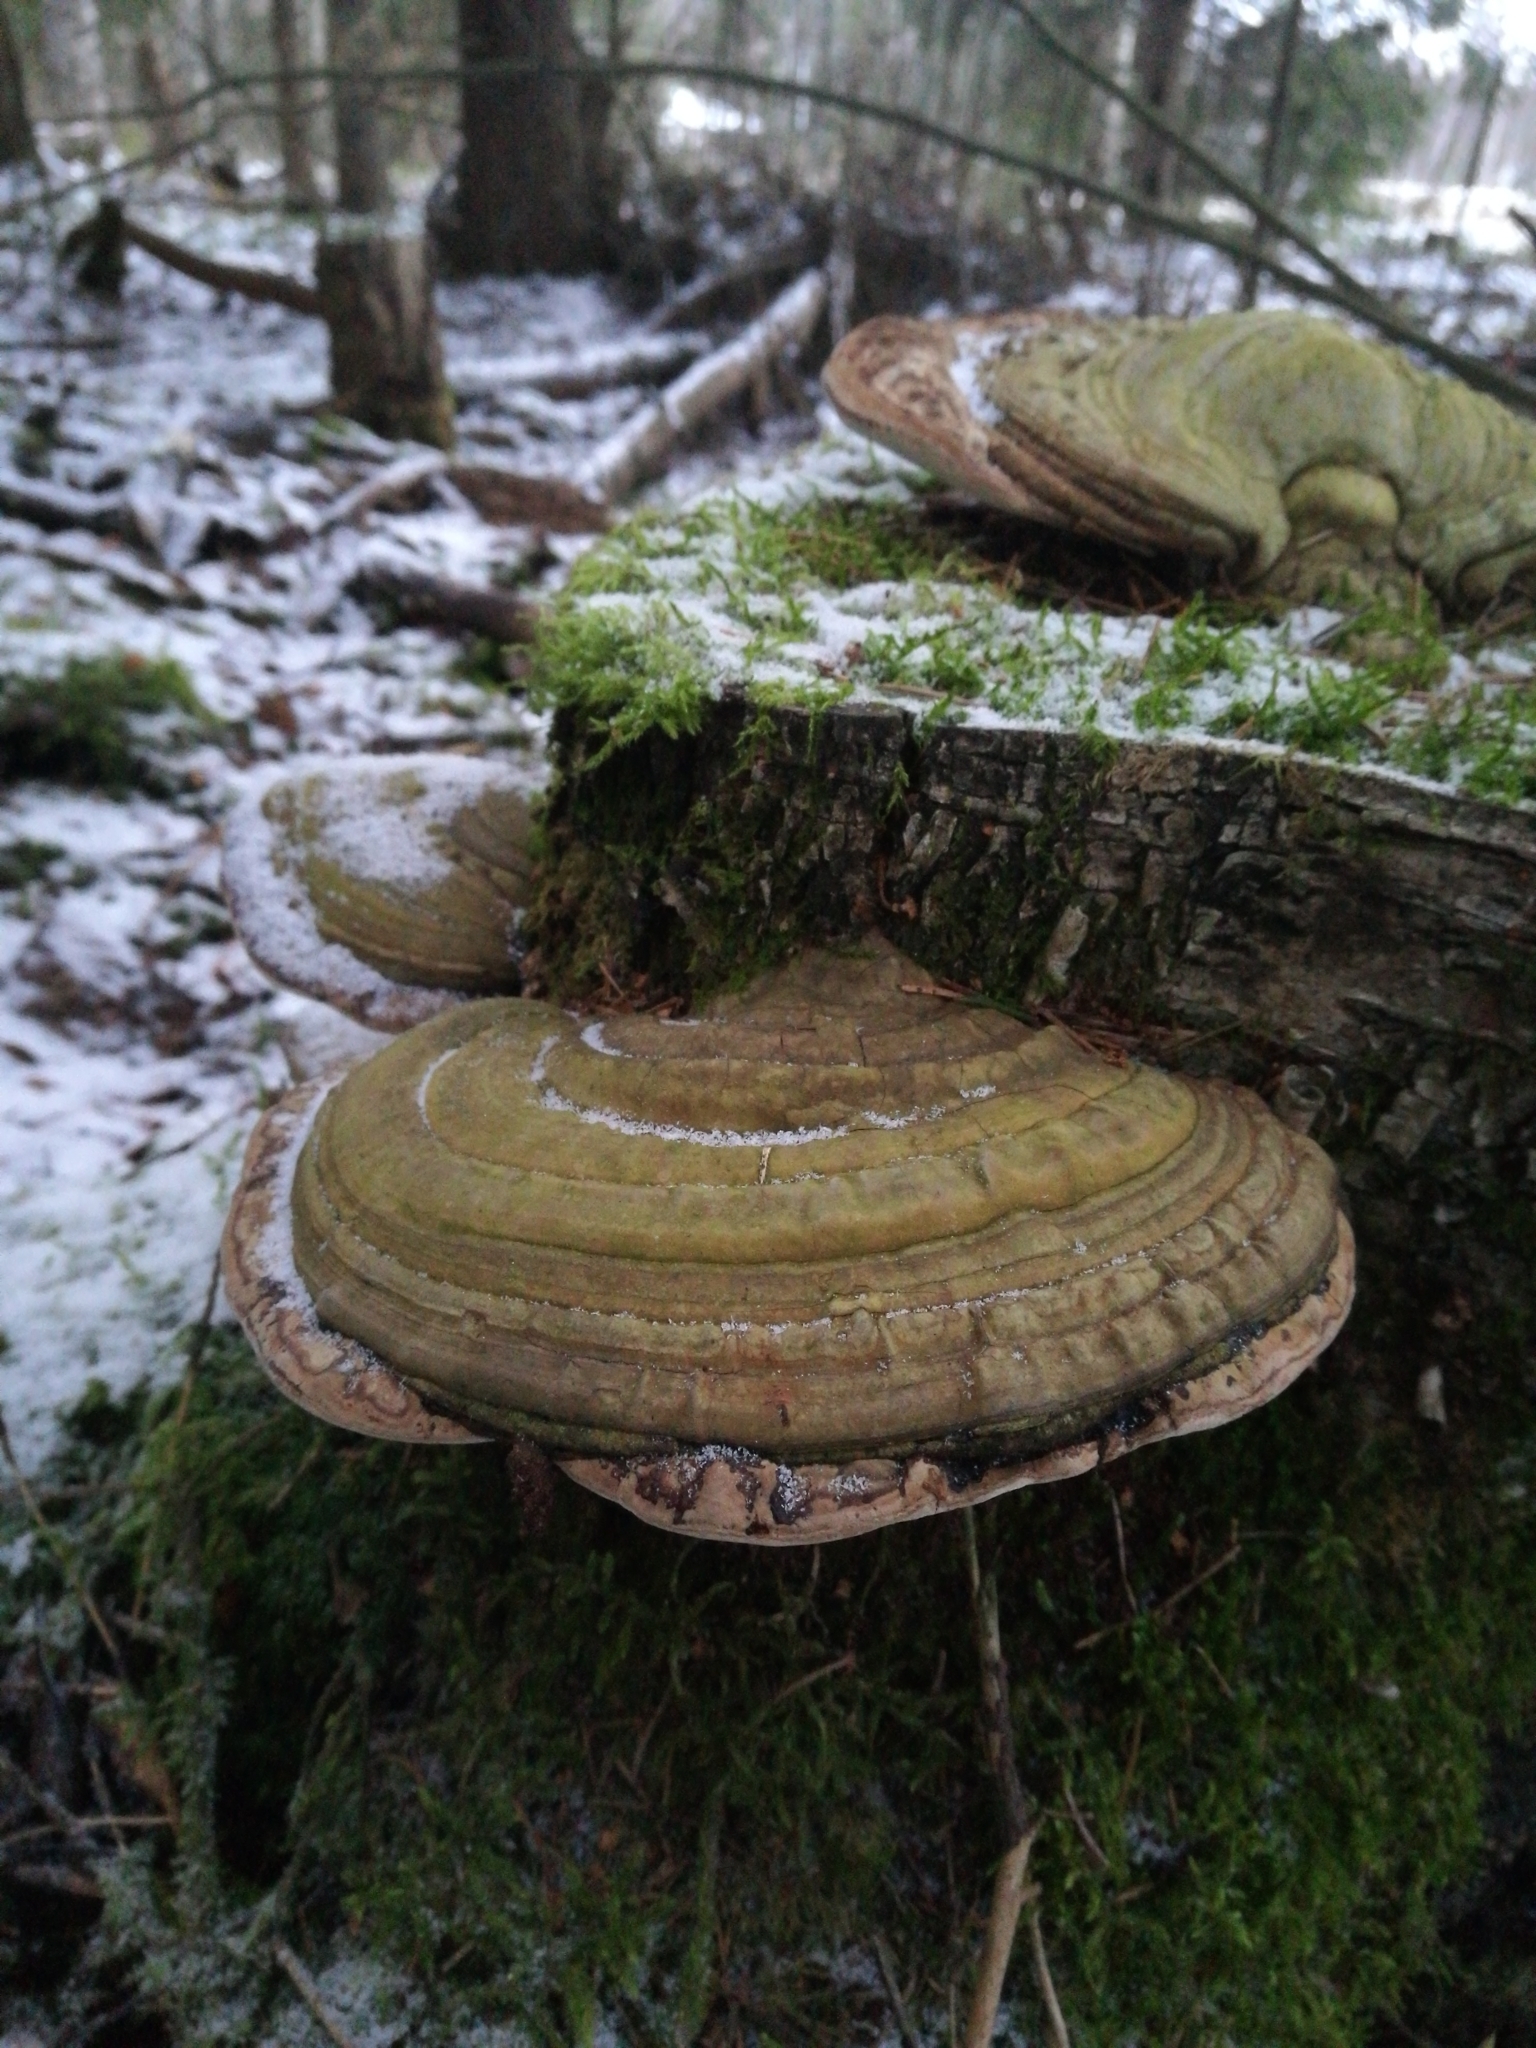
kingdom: Fungi
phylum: Basidiomycota
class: Agaricomycetes
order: Polyporales
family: Polyporaceae
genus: Ganoderma
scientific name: Ganoderma applanatum
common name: Artist's bracket
